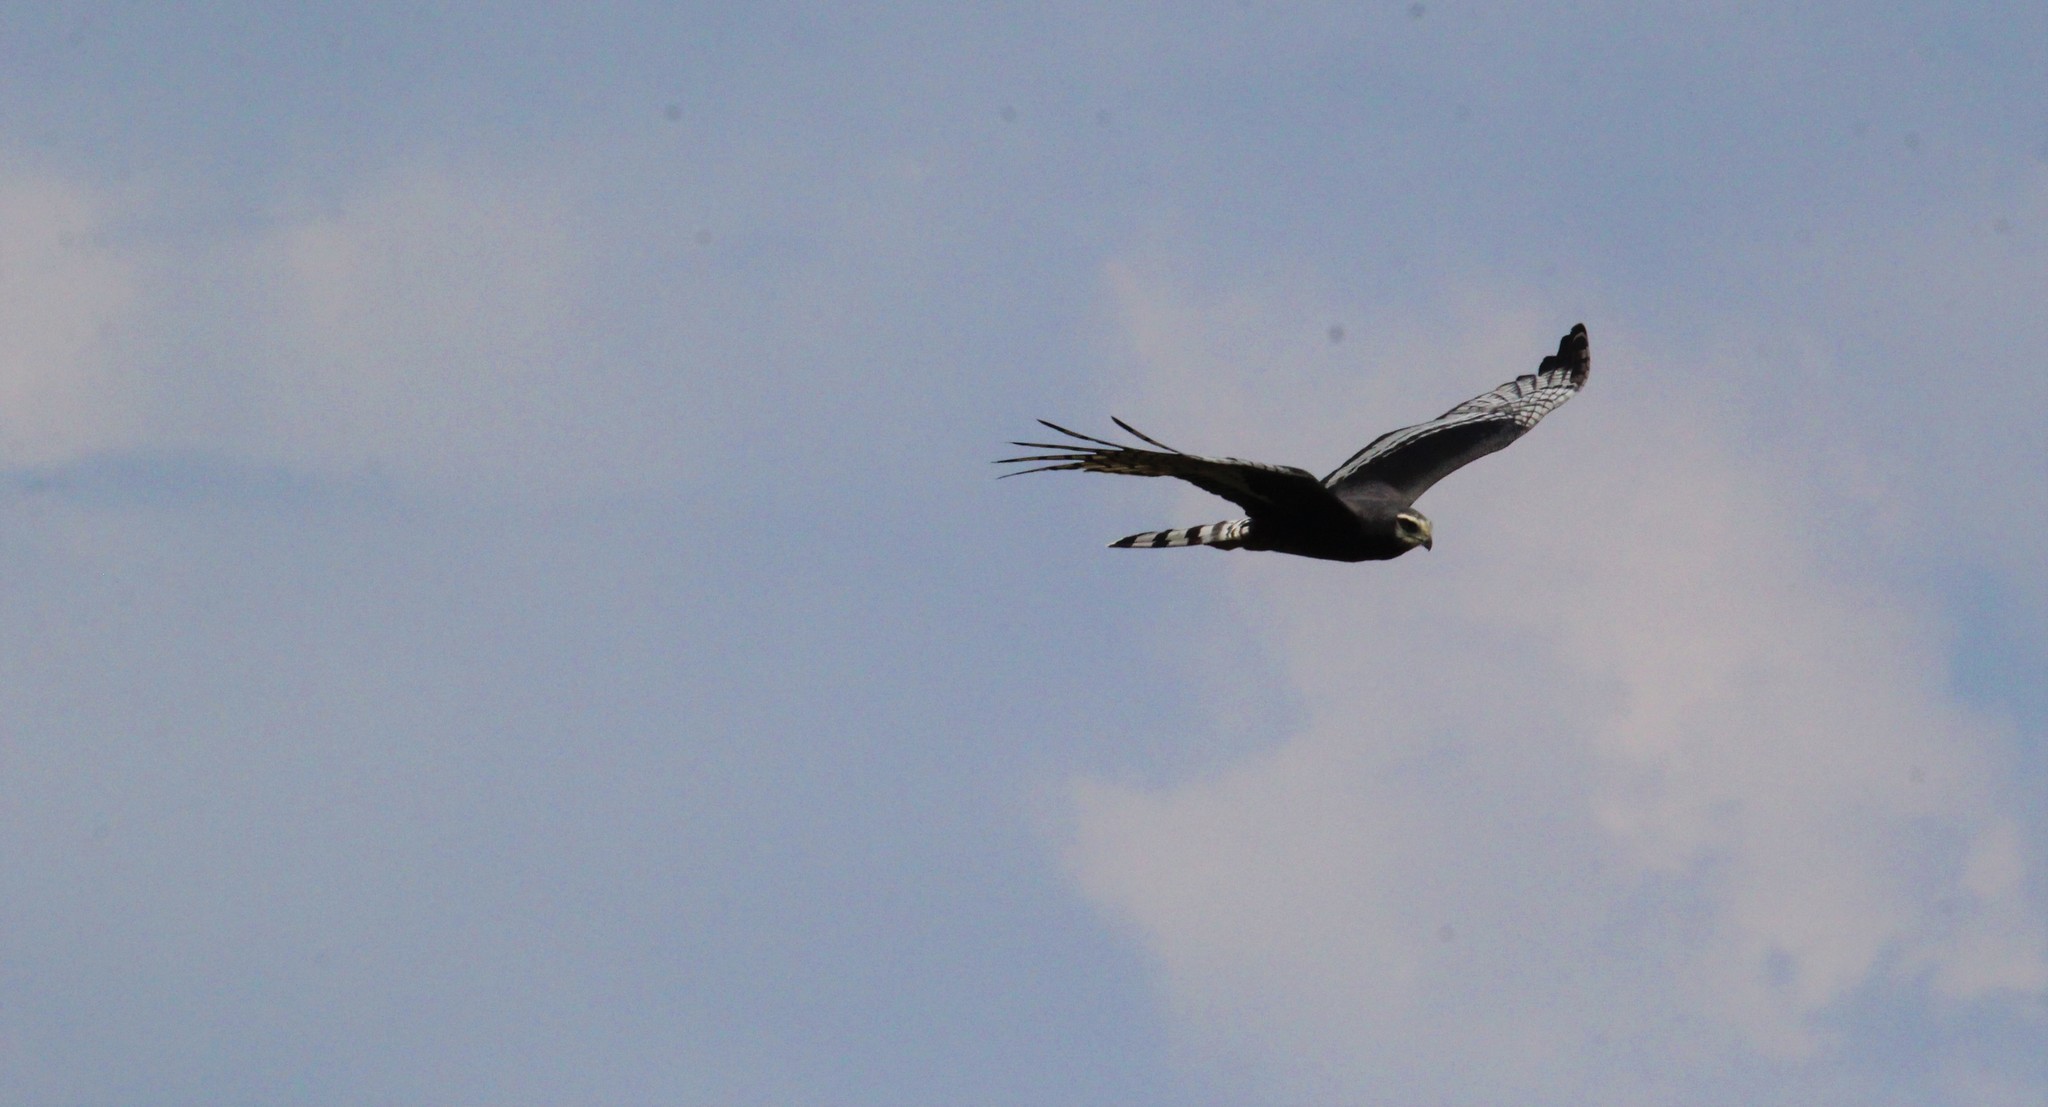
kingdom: Animalia
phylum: Chordata
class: Aves
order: Accipitriformes
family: Accipitridae
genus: Circus
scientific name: Circus buffoni
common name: Long-winged harrier
